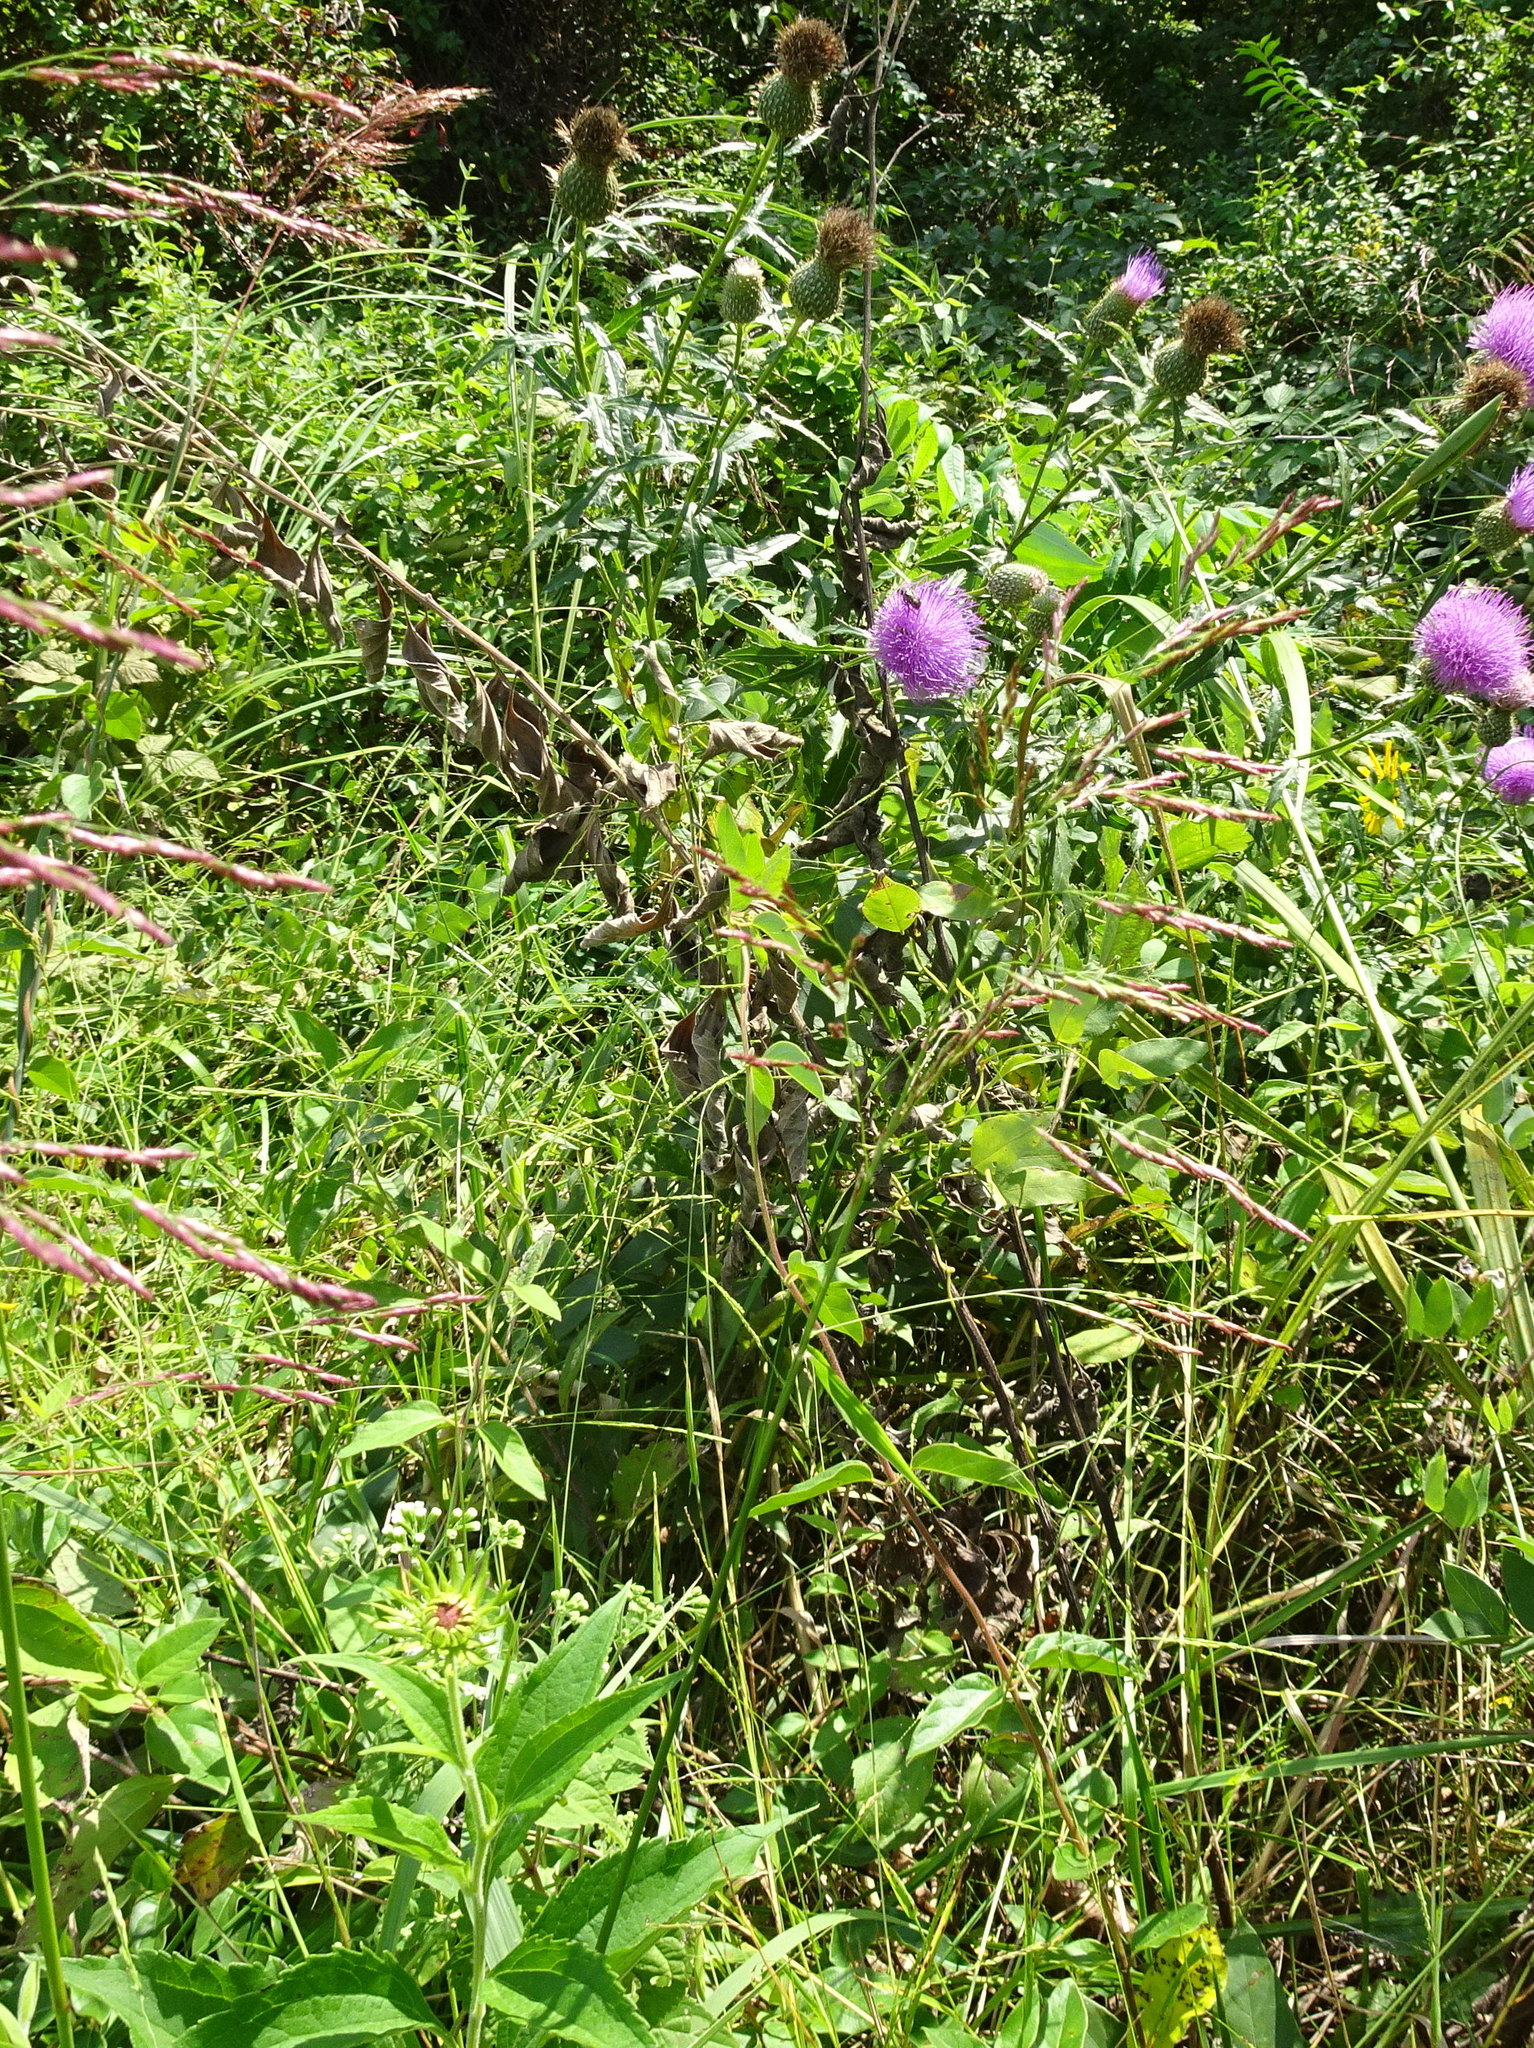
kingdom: Plantae
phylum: Tracheophyta
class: Liliopsida
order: Poales
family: Poaceae
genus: Tridens
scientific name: Tridens flavus
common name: Purpletop
